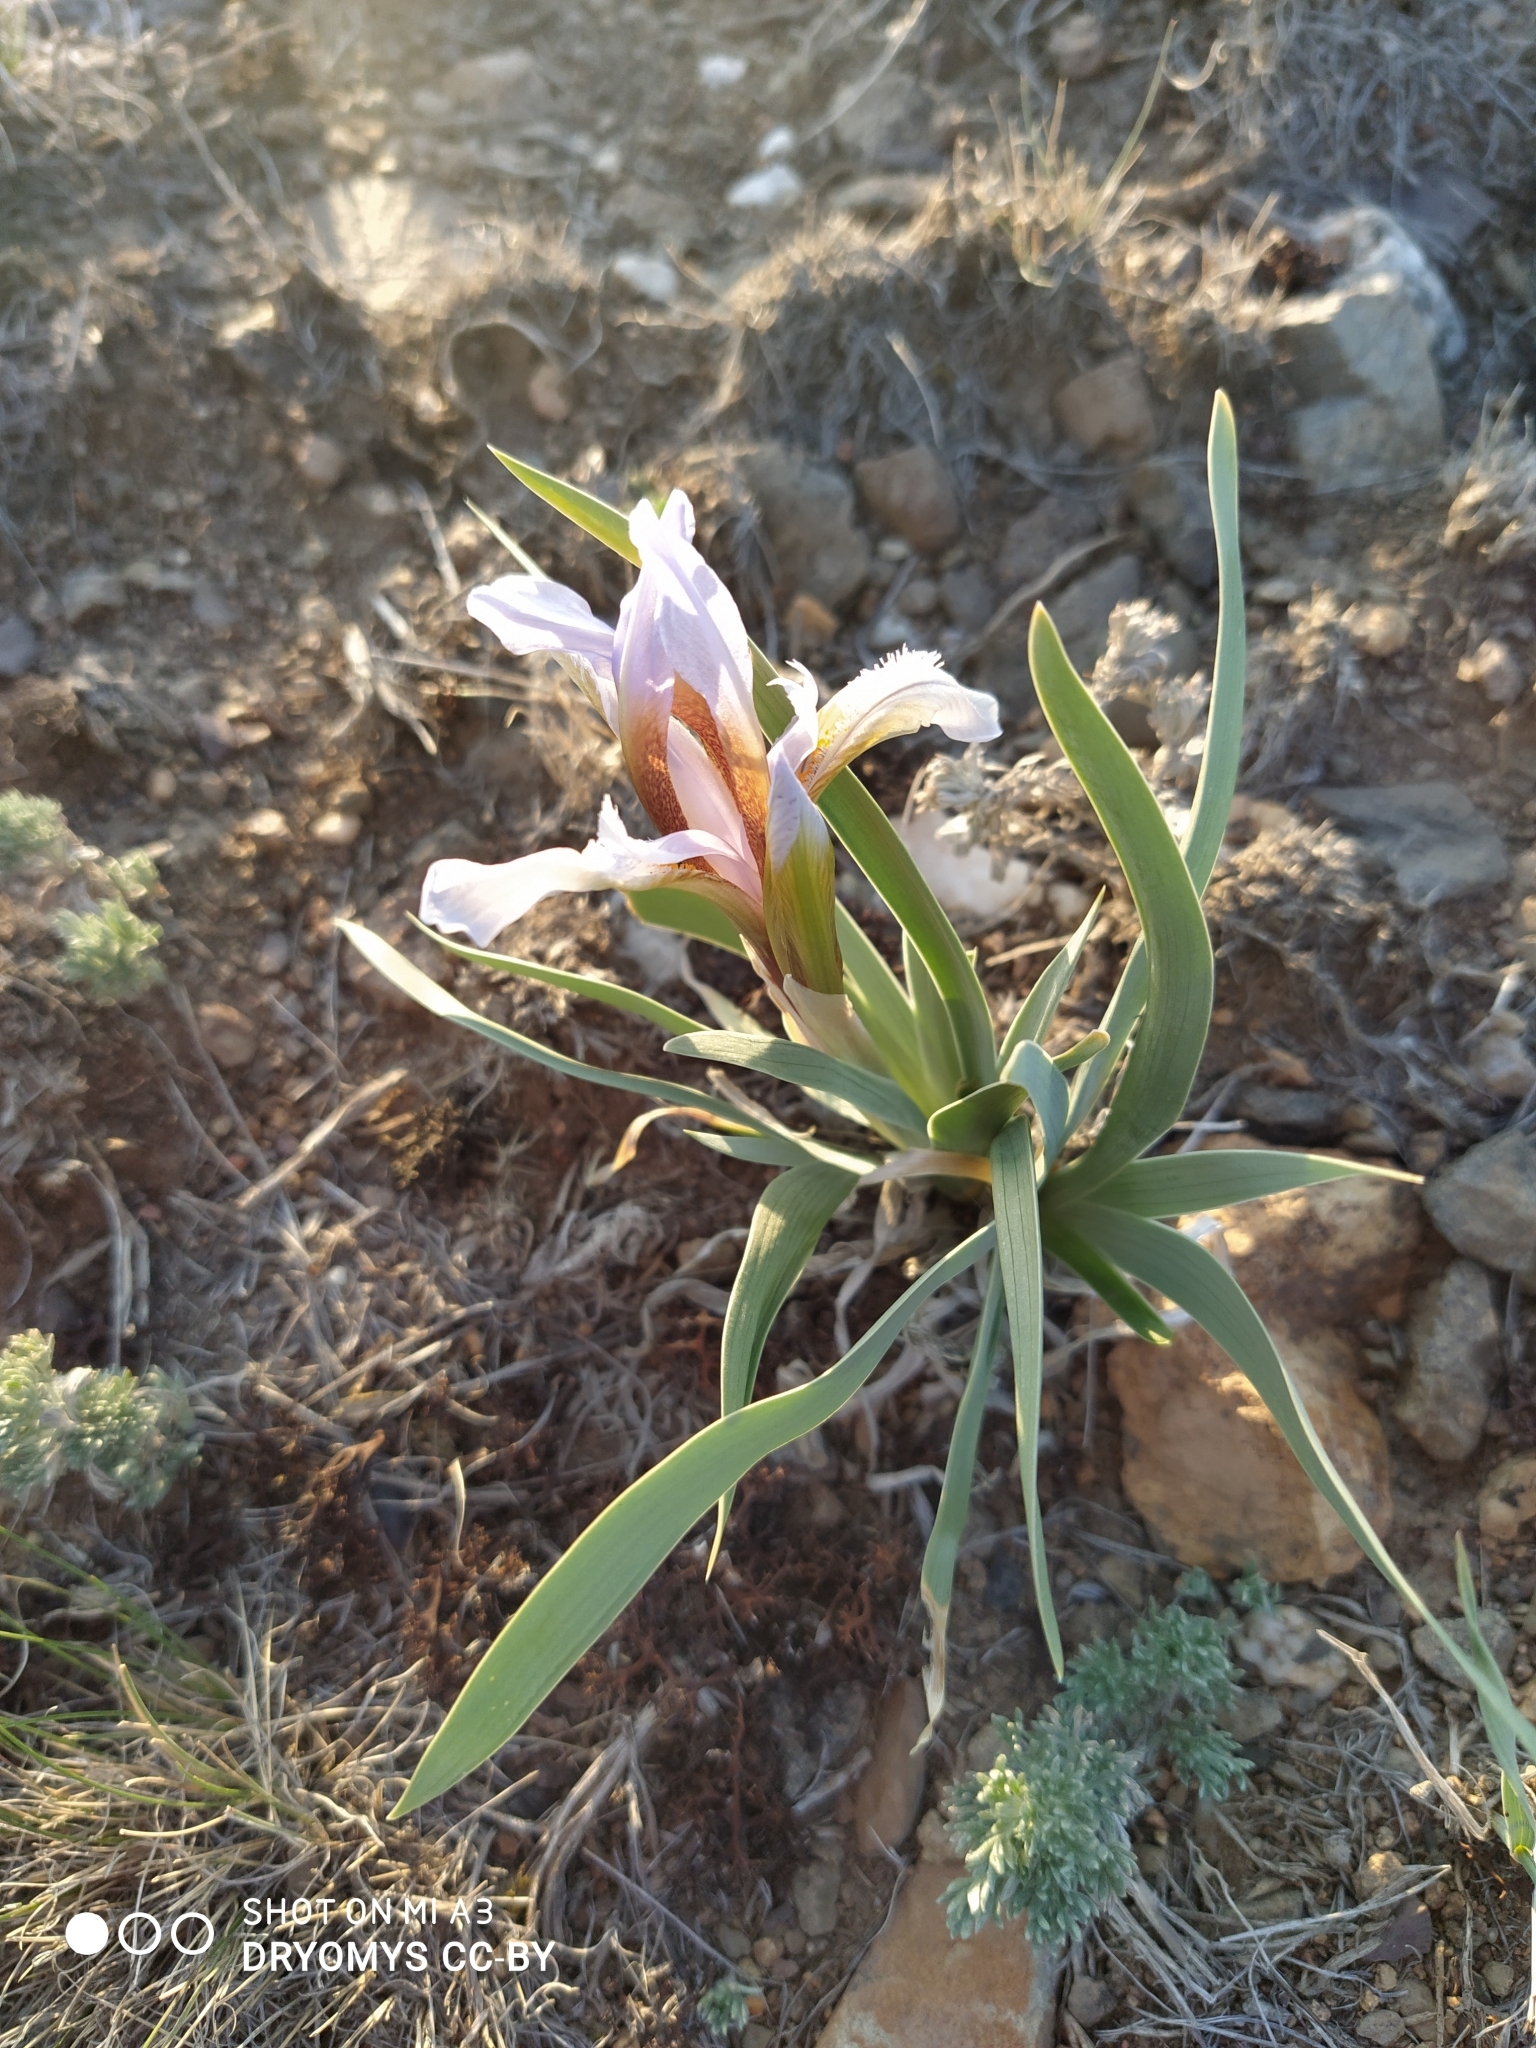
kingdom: Plantae
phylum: Tracheophyta
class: Liliopsida
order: Asparagales
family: Iridaceae
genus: Iris
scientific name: Iris glaucescens
